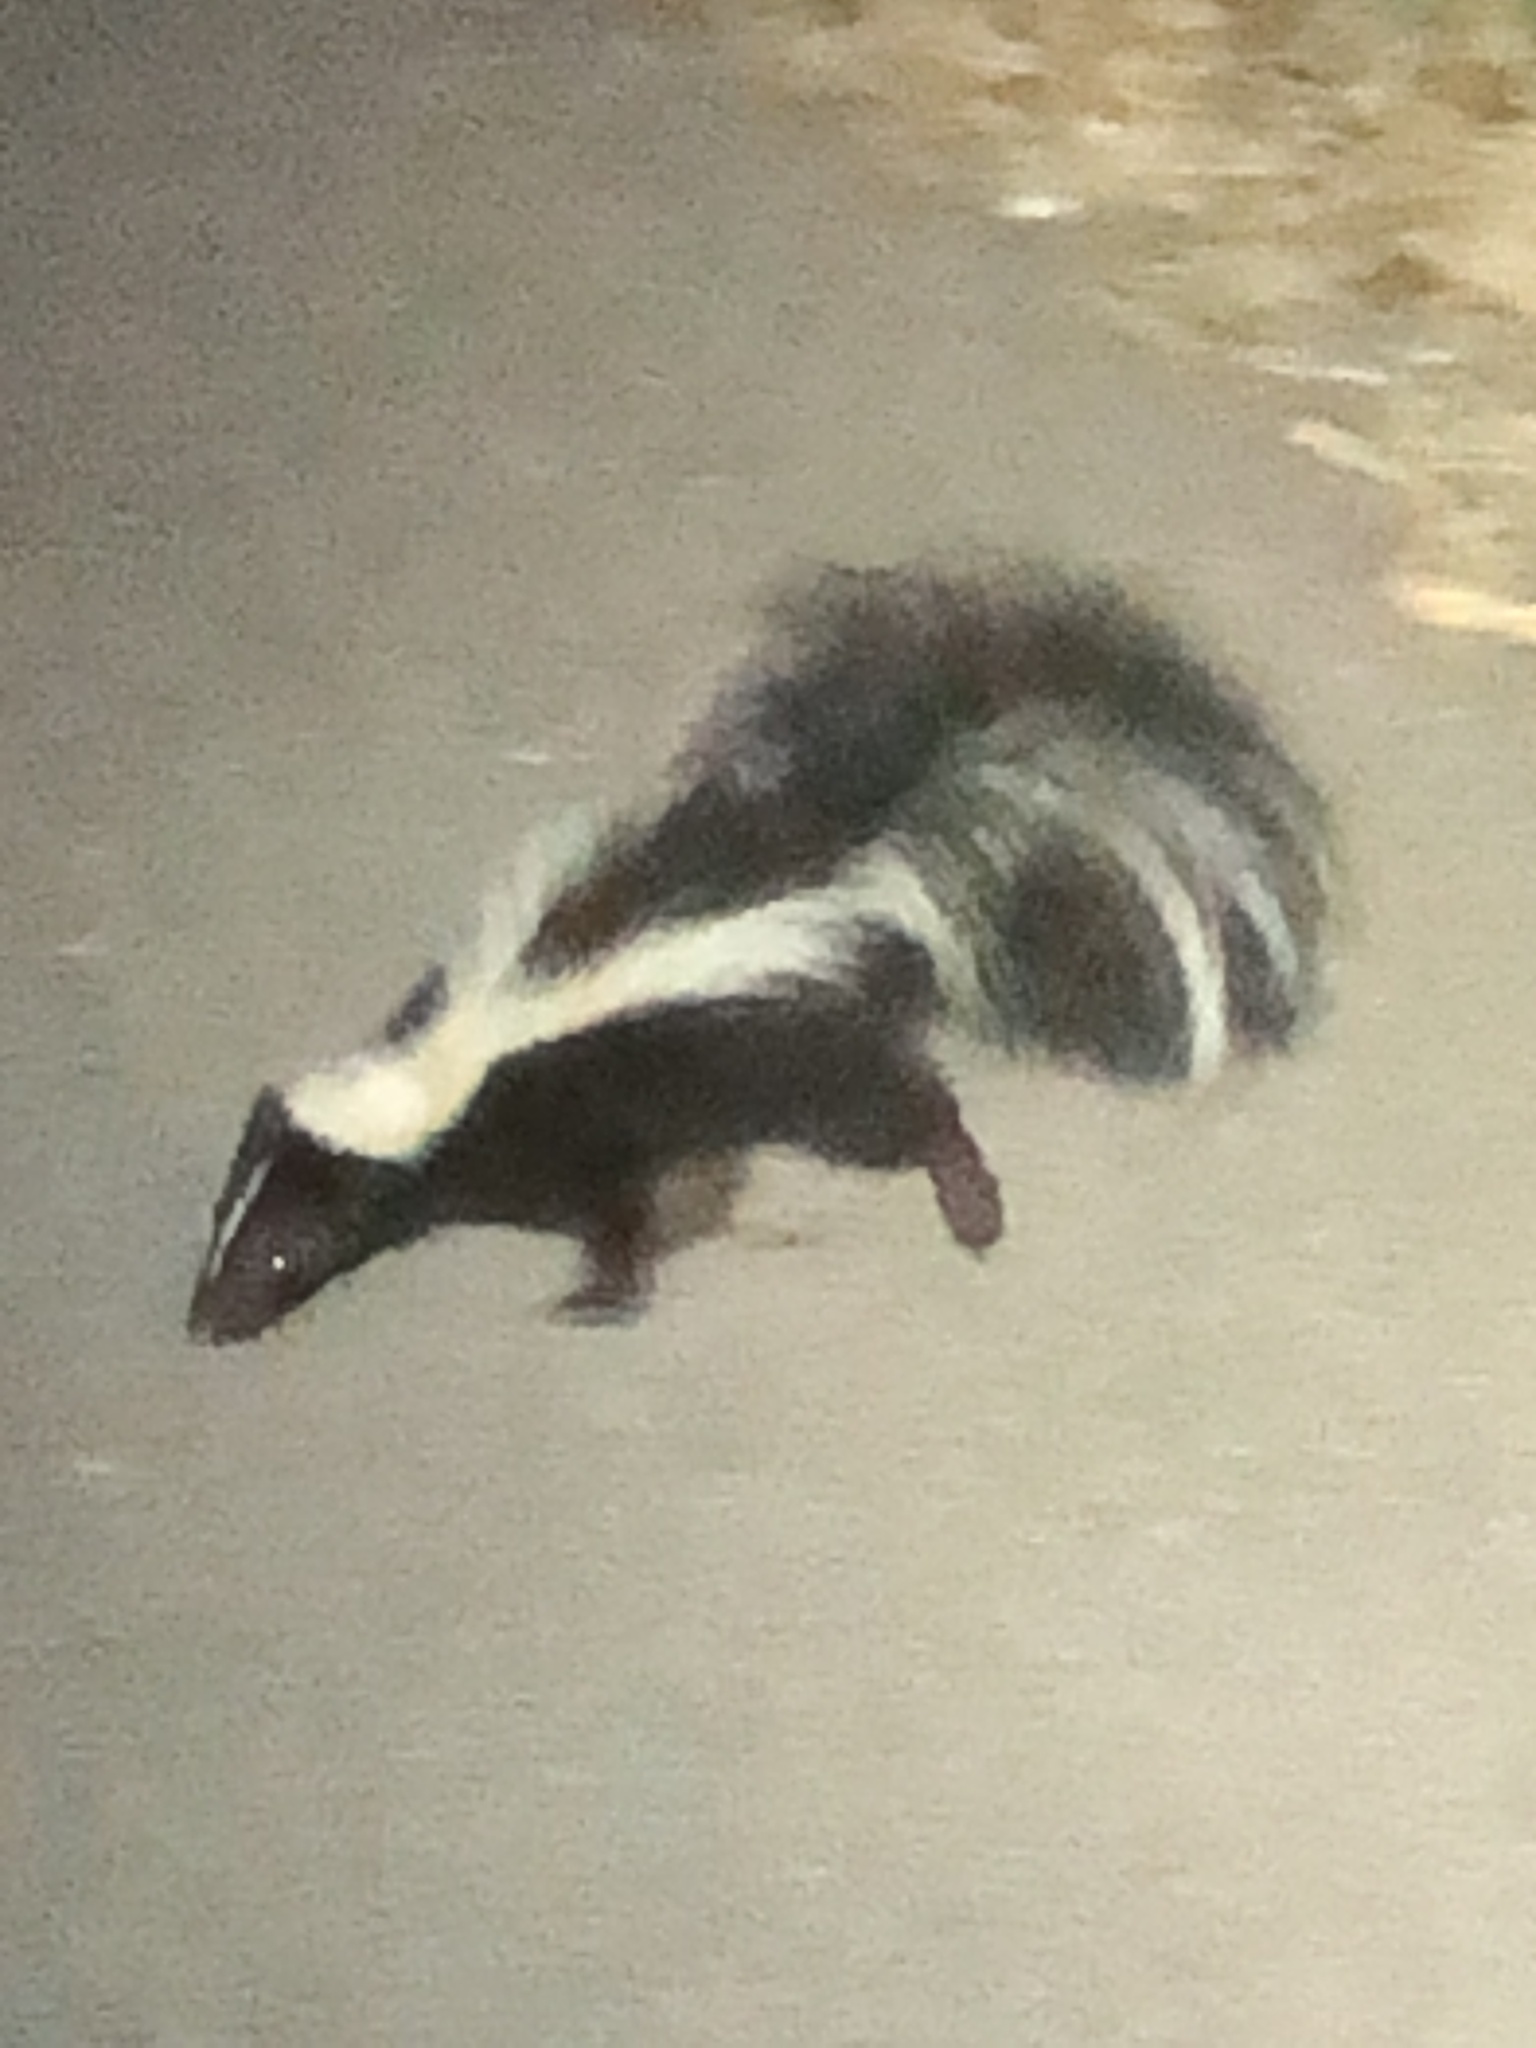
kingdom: Animalia
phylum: Chordata
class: Mammalia
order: Carnivora
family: Mephitidae
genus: Mephitis
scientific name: Mephitis mephitis
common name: Striped skunk
